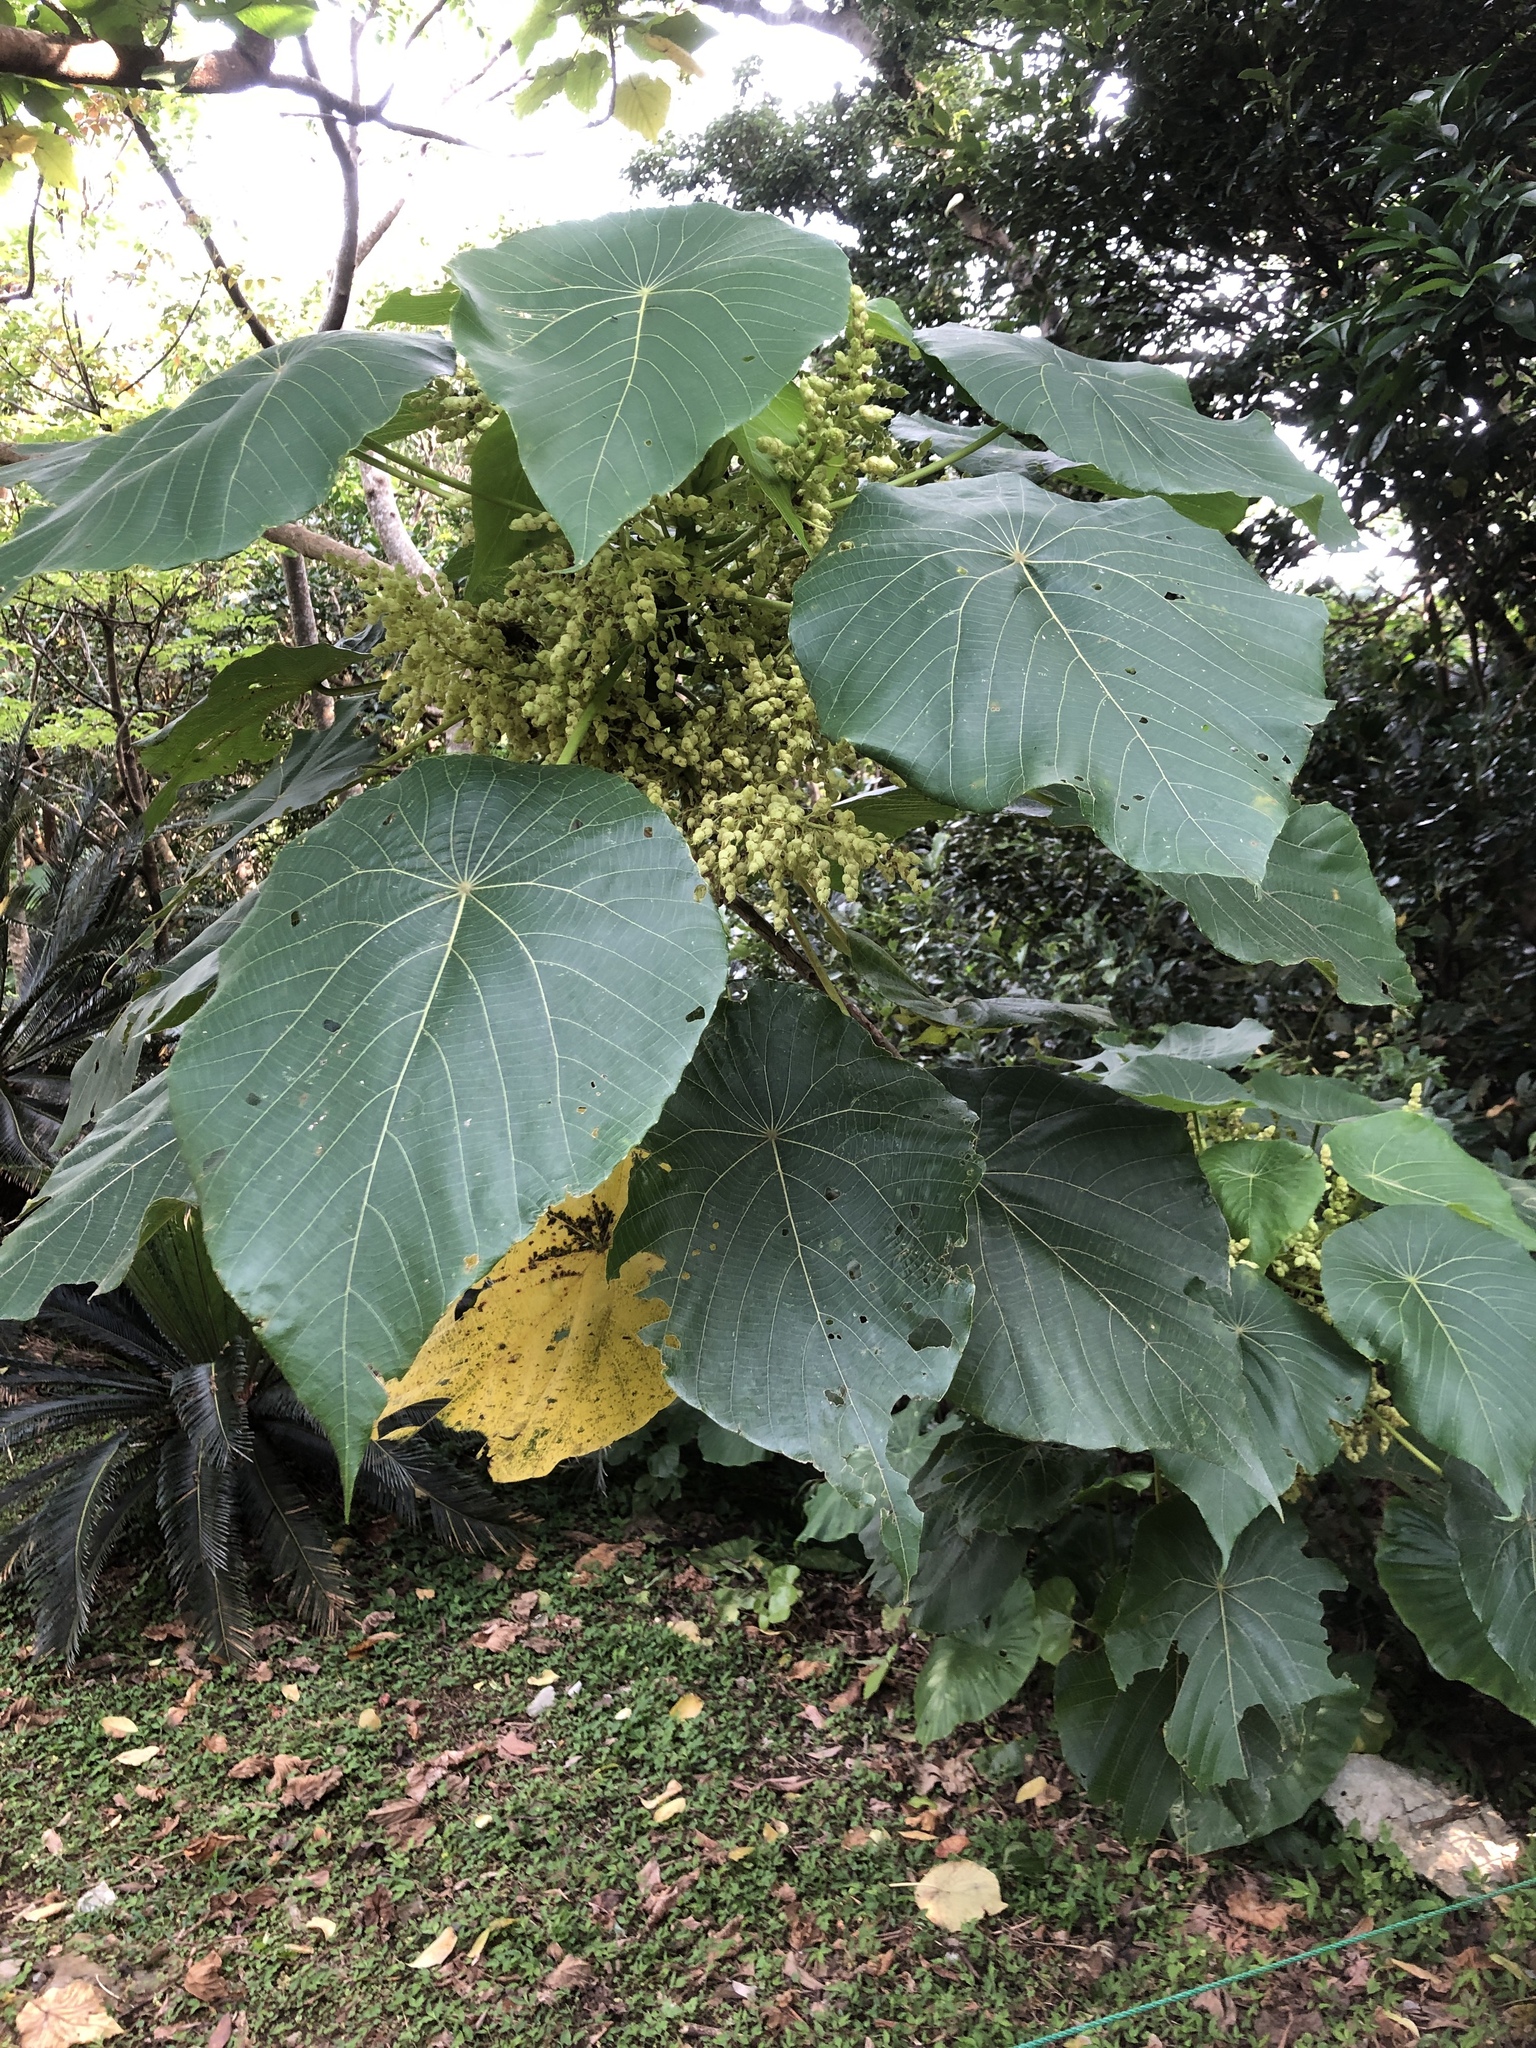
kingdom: Plantae
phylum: Tracheophyta
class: Magnoliopsida
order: Malpighiales
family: Euphorbiaceae
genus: Macaranga
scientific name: Macaranga tanarius
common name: Parasol leaf tree
